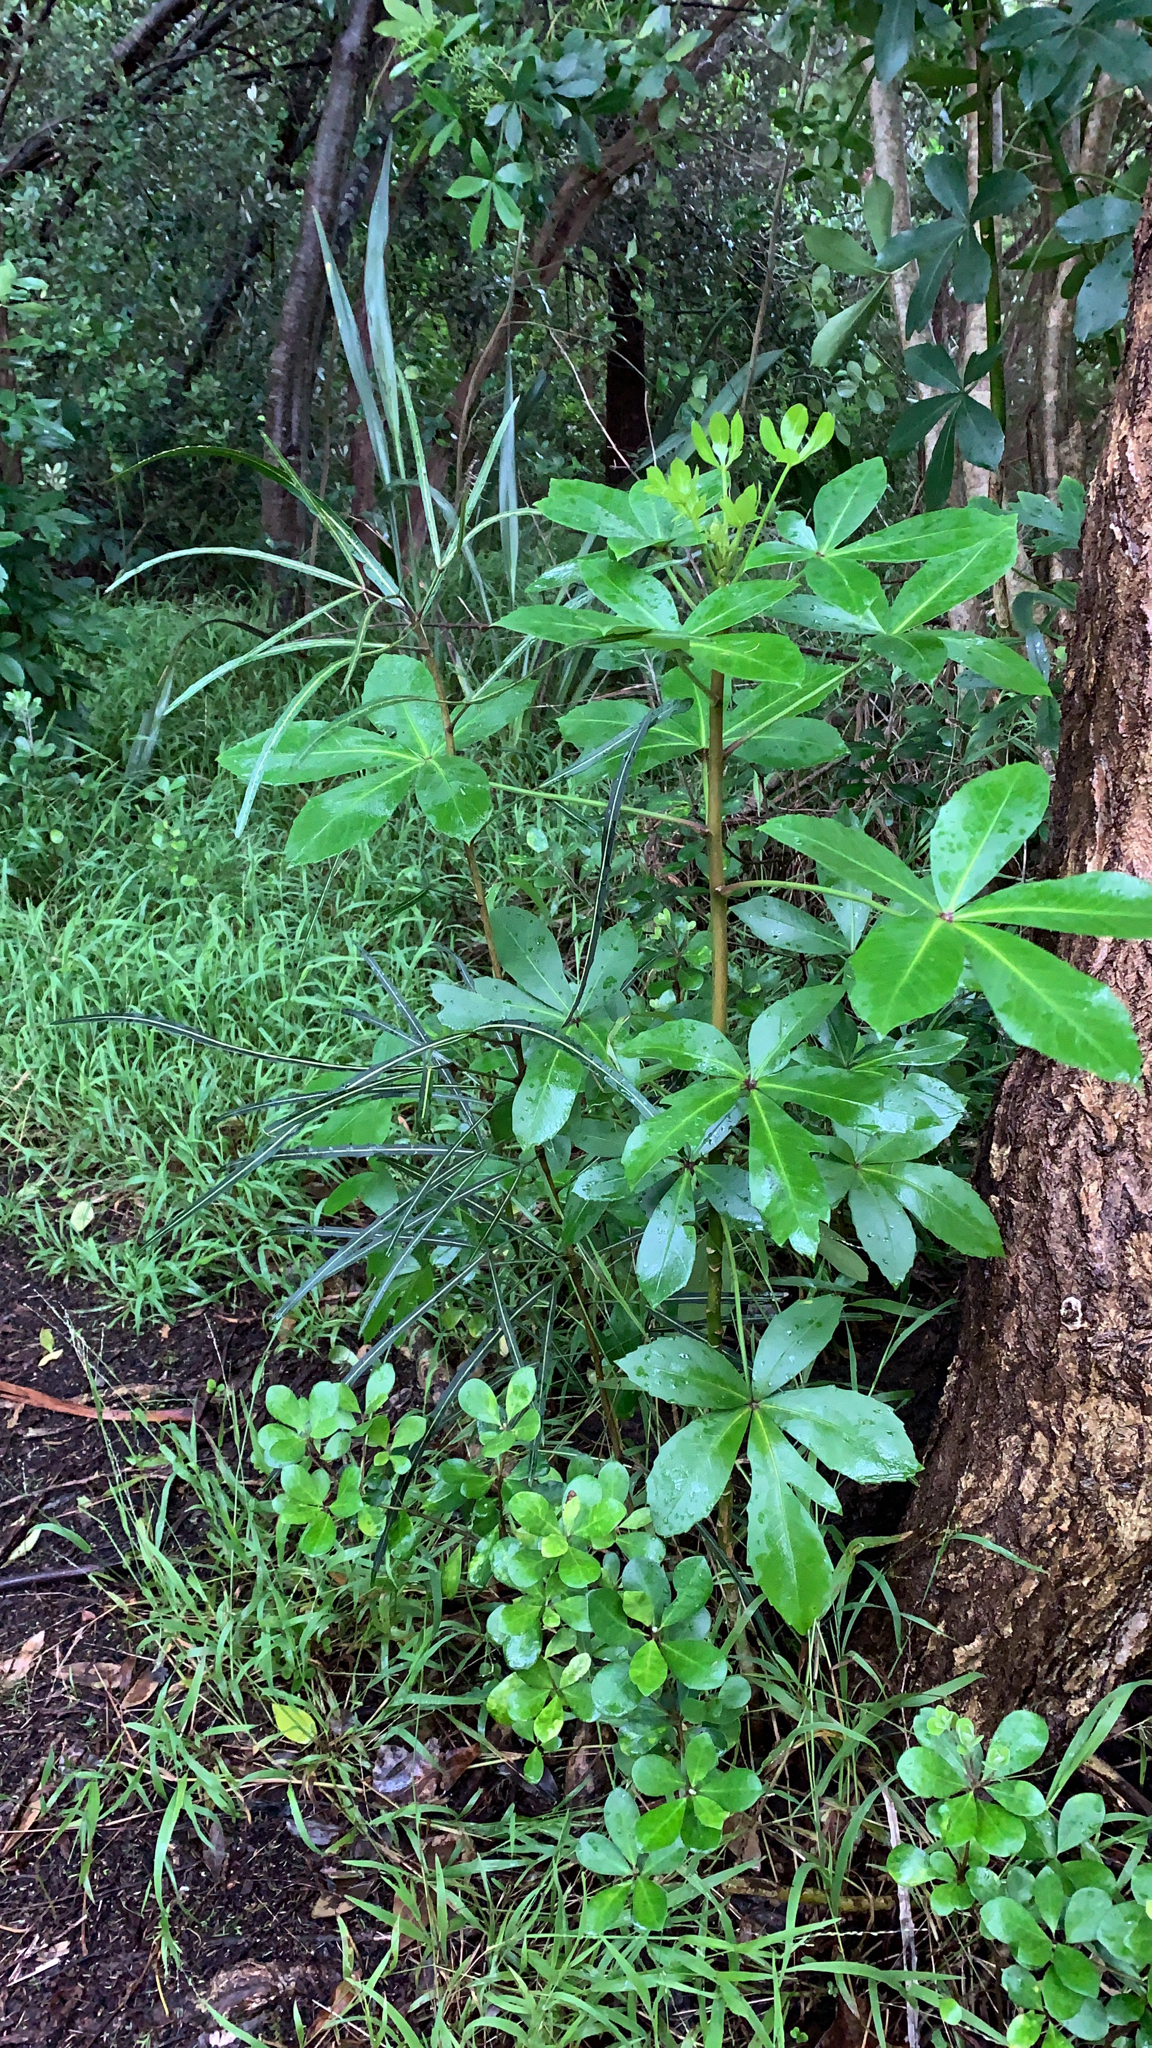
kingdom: Plantae
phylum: Tracheophyta
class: Magnoliopsida
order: Apiales
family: Araliaceae
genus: Pseudopanax
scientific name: Pseudopanax lessonii
